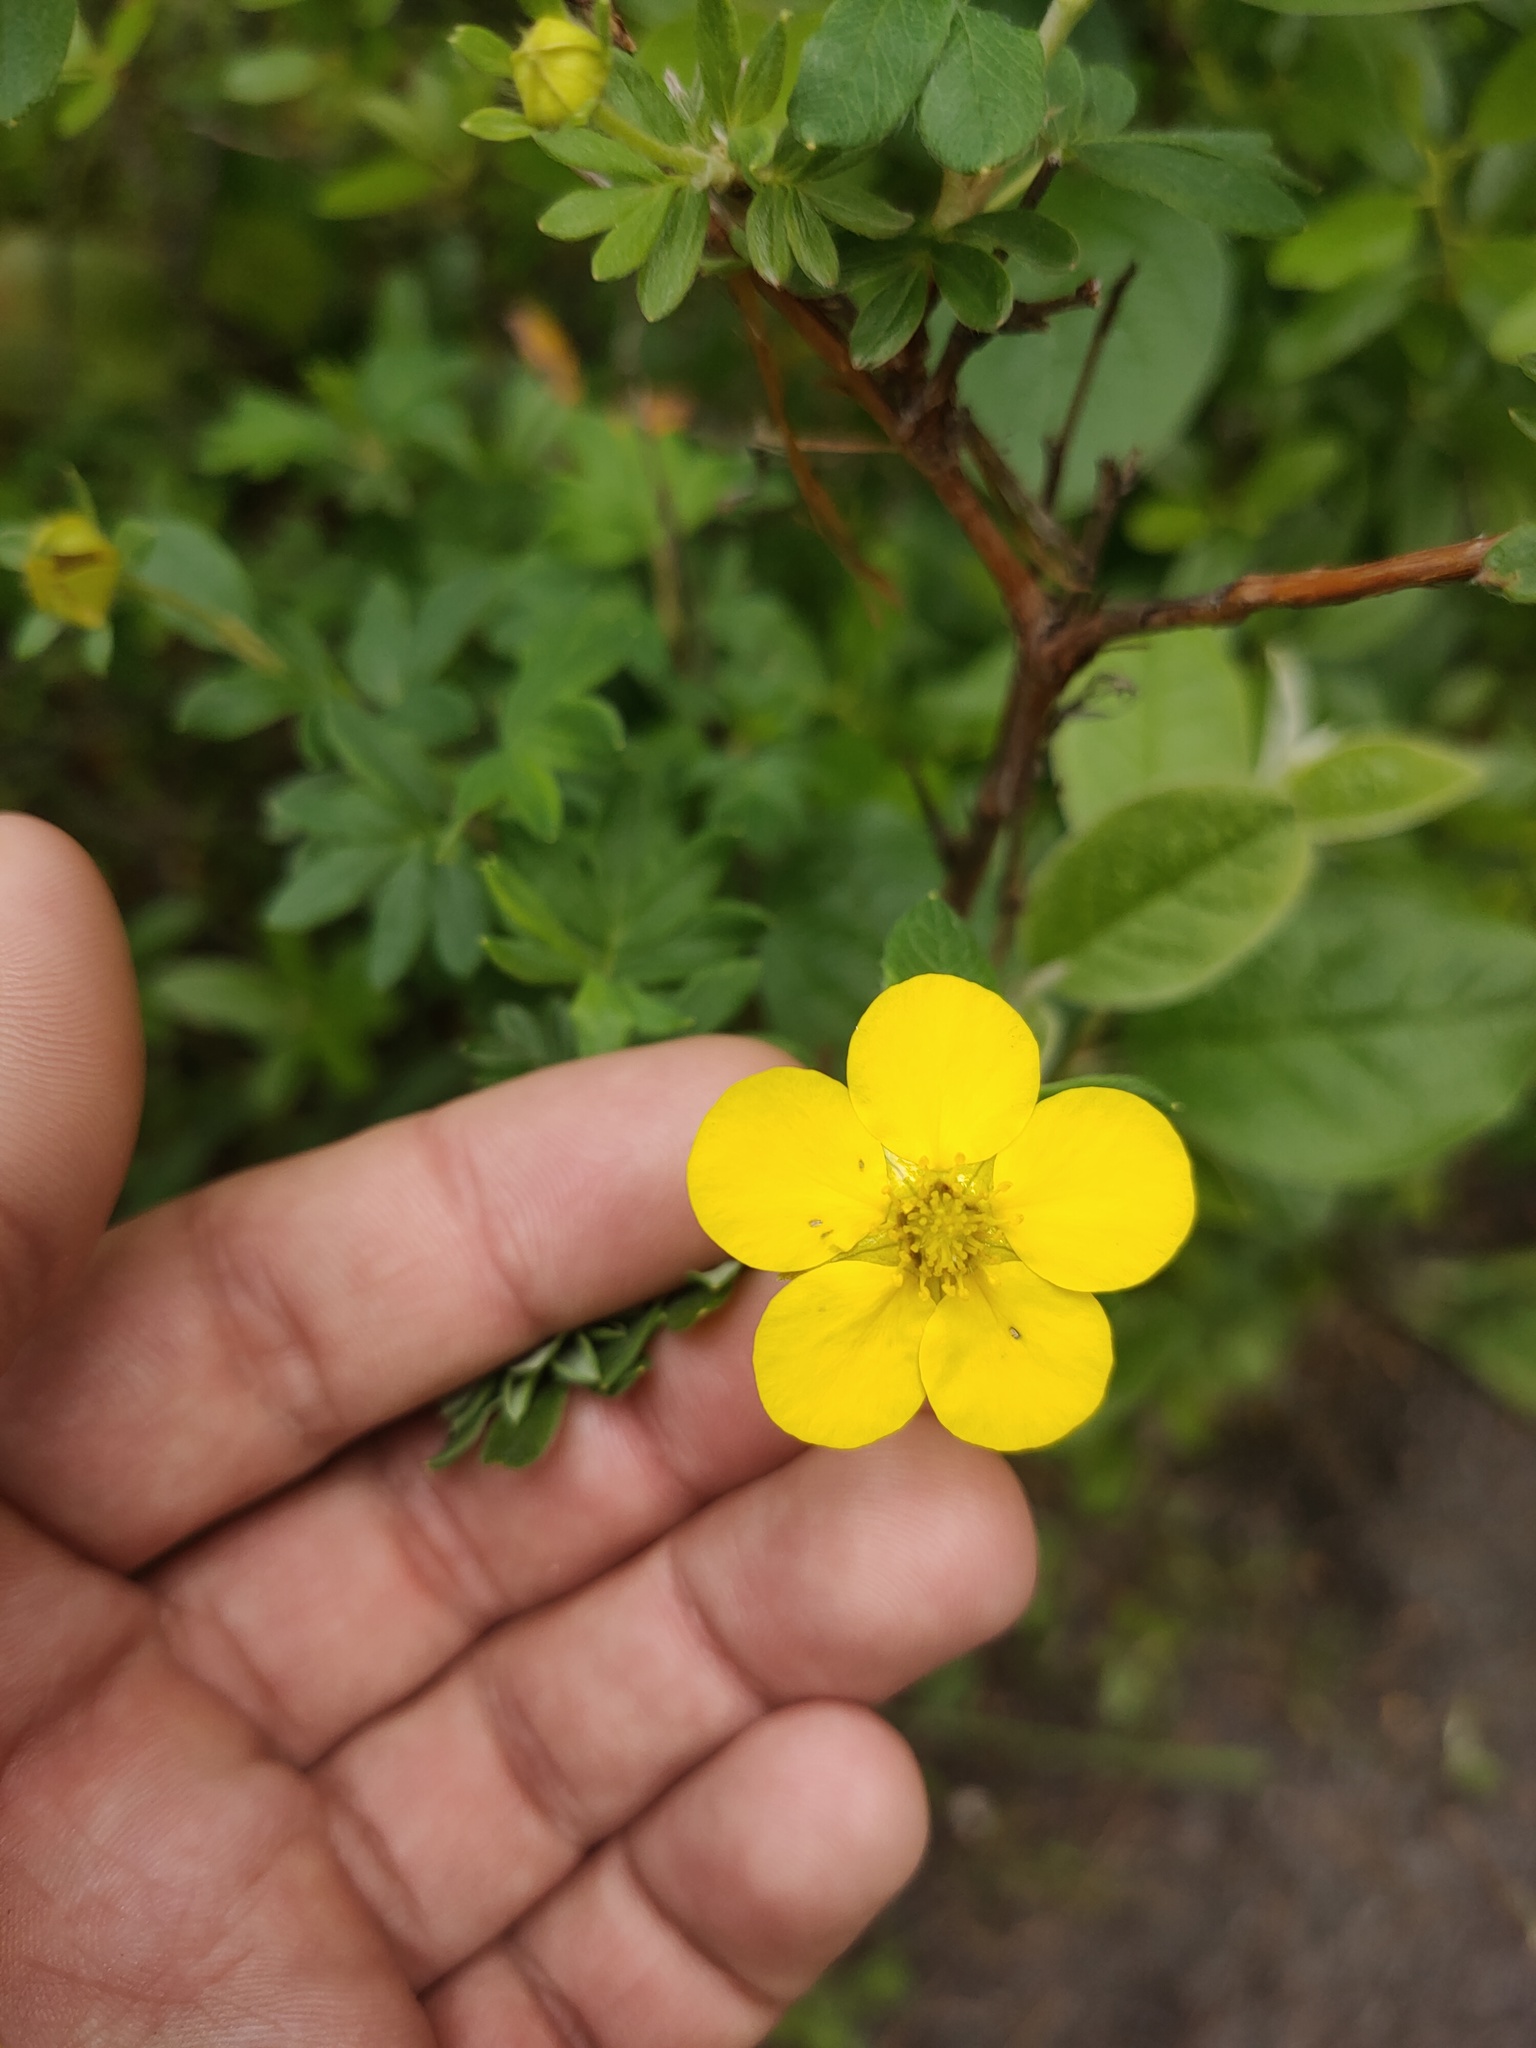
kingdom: Plantae
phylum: Tracheophyta
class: Magnoliopsida
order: Rosales
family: Rosaceae
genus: Dasiphora
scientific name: Dasiphora fruticosa
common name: Shrubby cinquefoil
